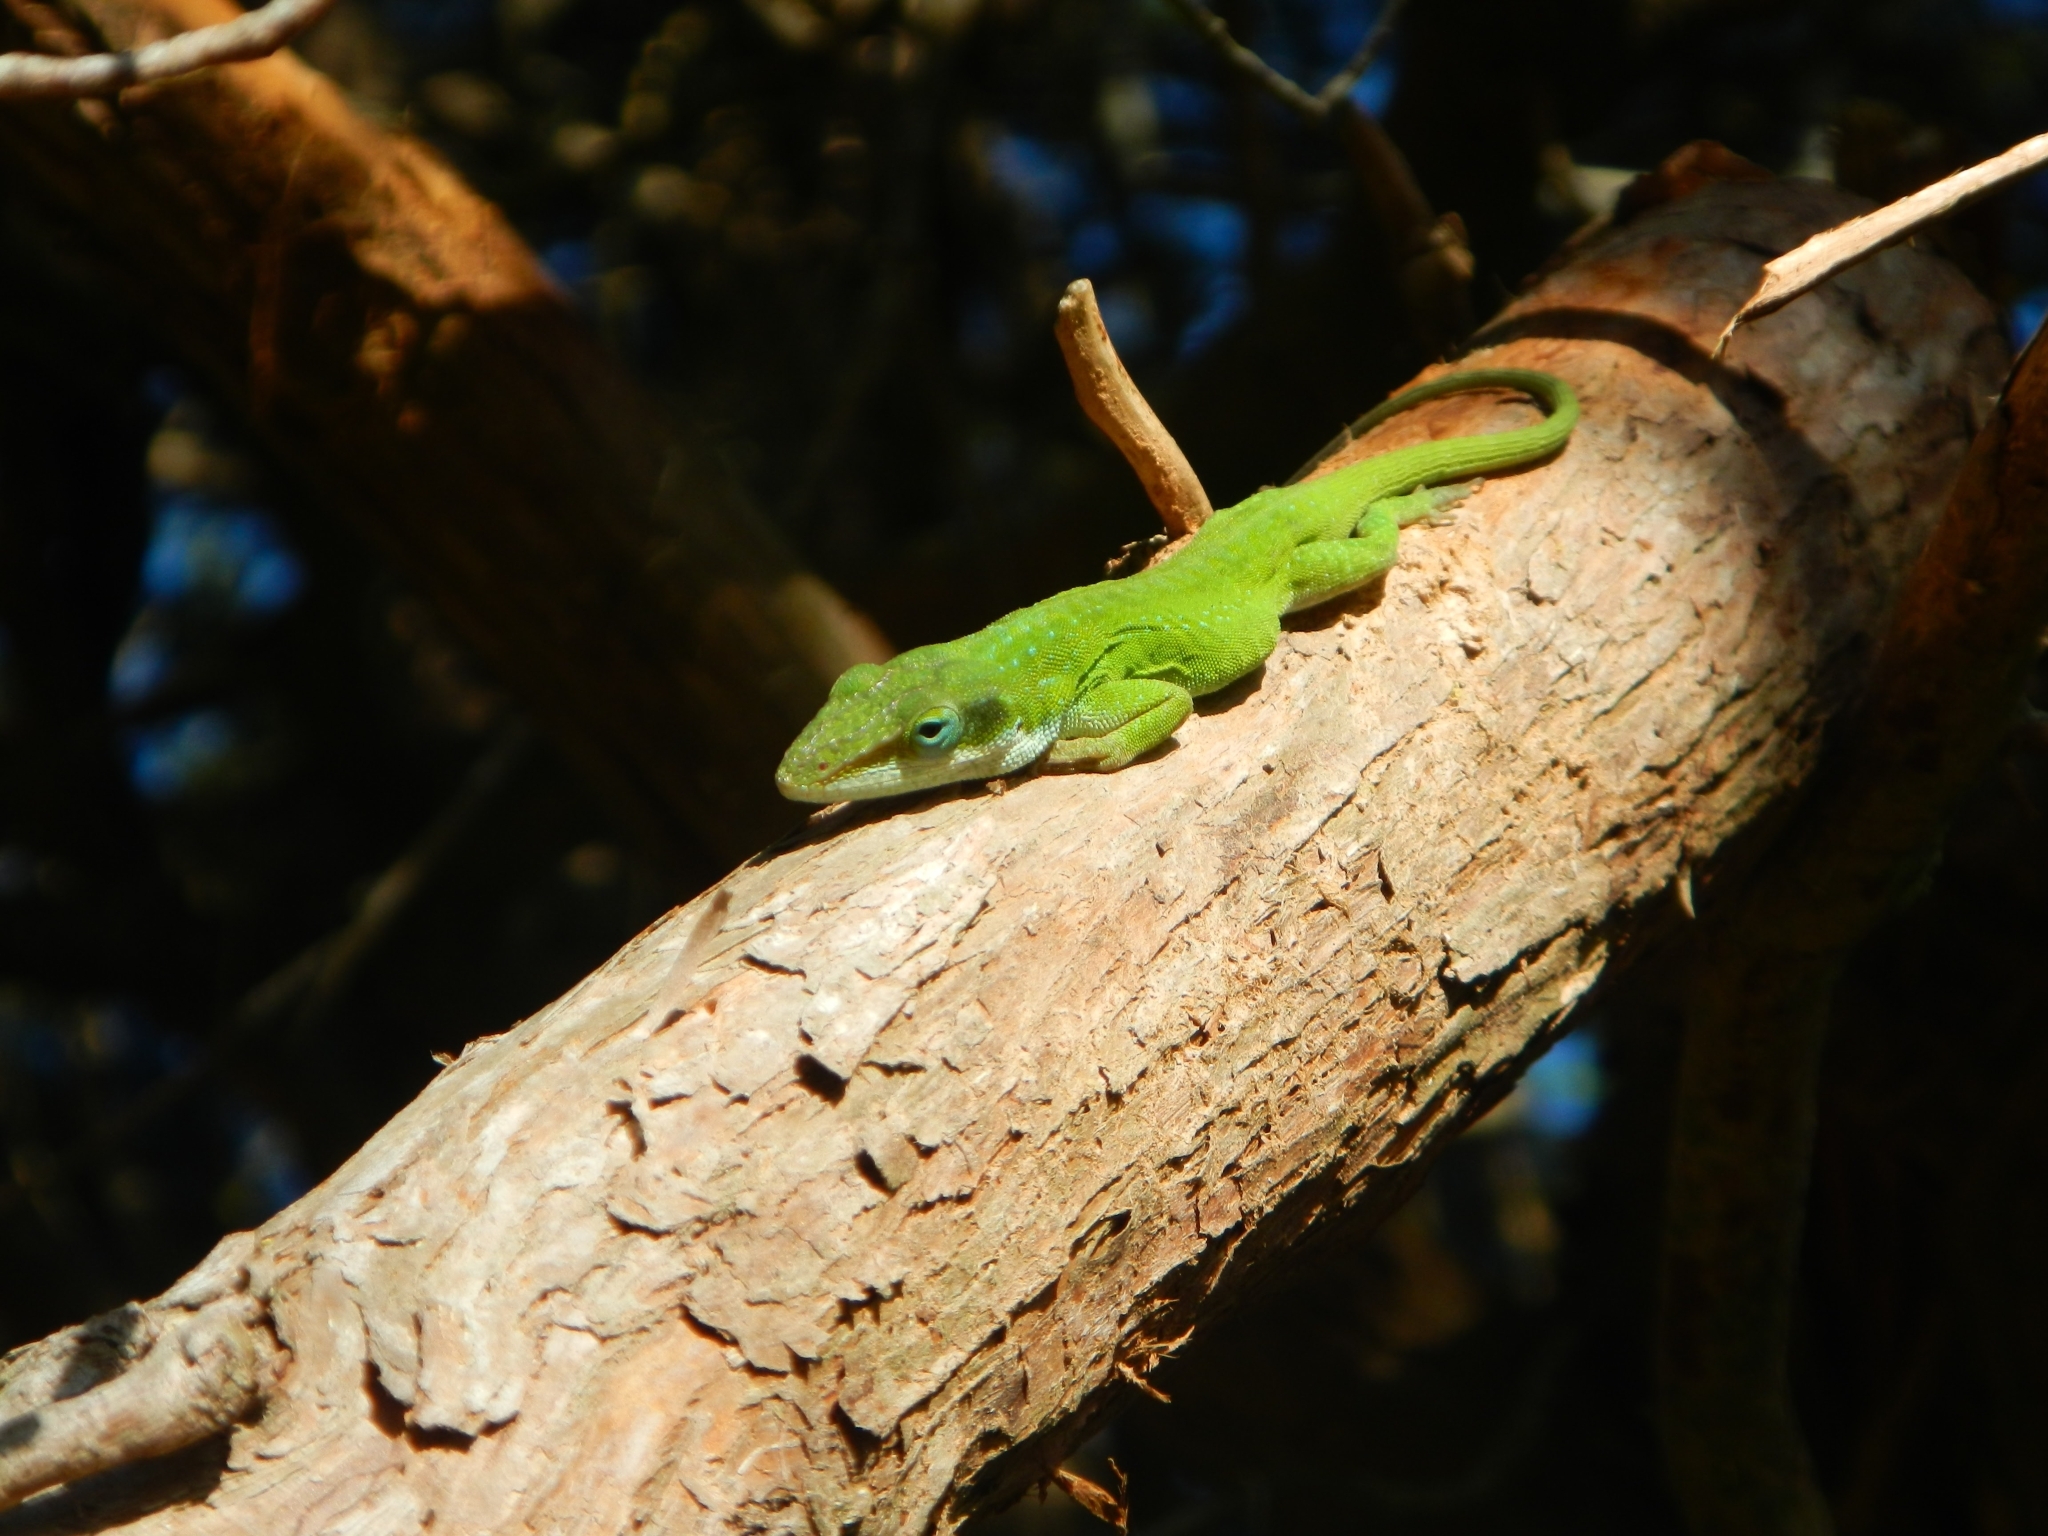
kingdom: Animalia
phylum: Chordata
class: Squamata
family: Dactyloidae
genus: Anolis
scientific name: Anolis carolinensis
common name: Green anole
